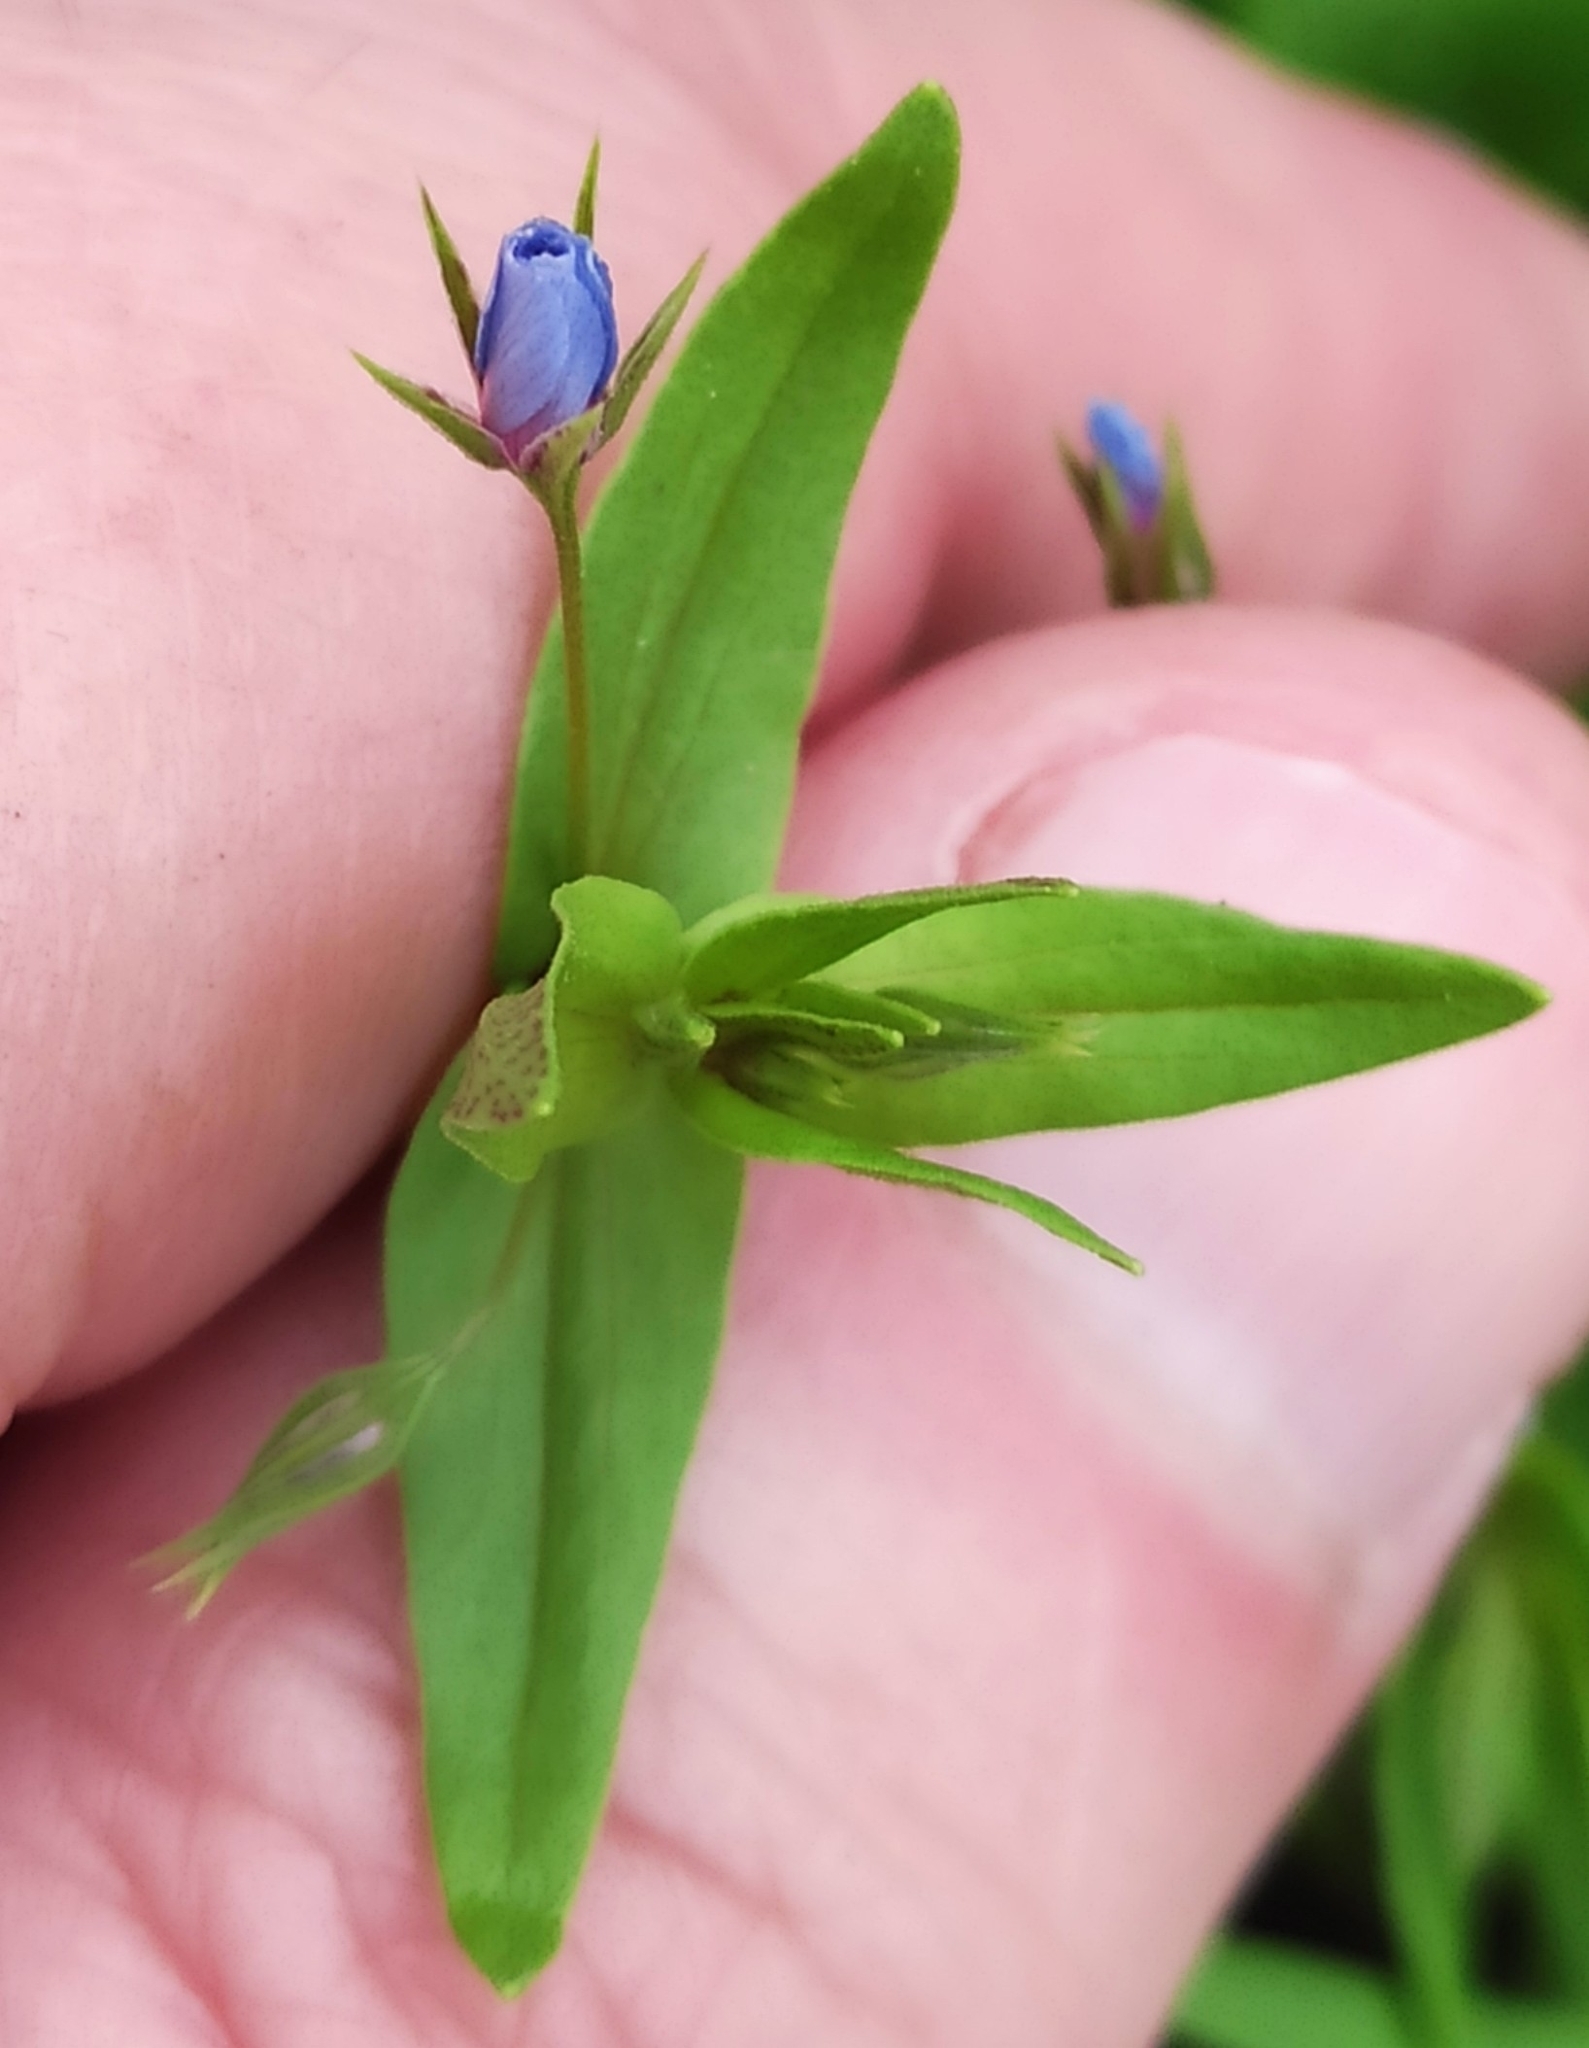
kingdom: Plantae
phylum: Tracheophyta
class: Magnoliopsida
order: Ericales
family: Primulaceae
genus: Lysimachia
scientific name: Lysimachia foemina
